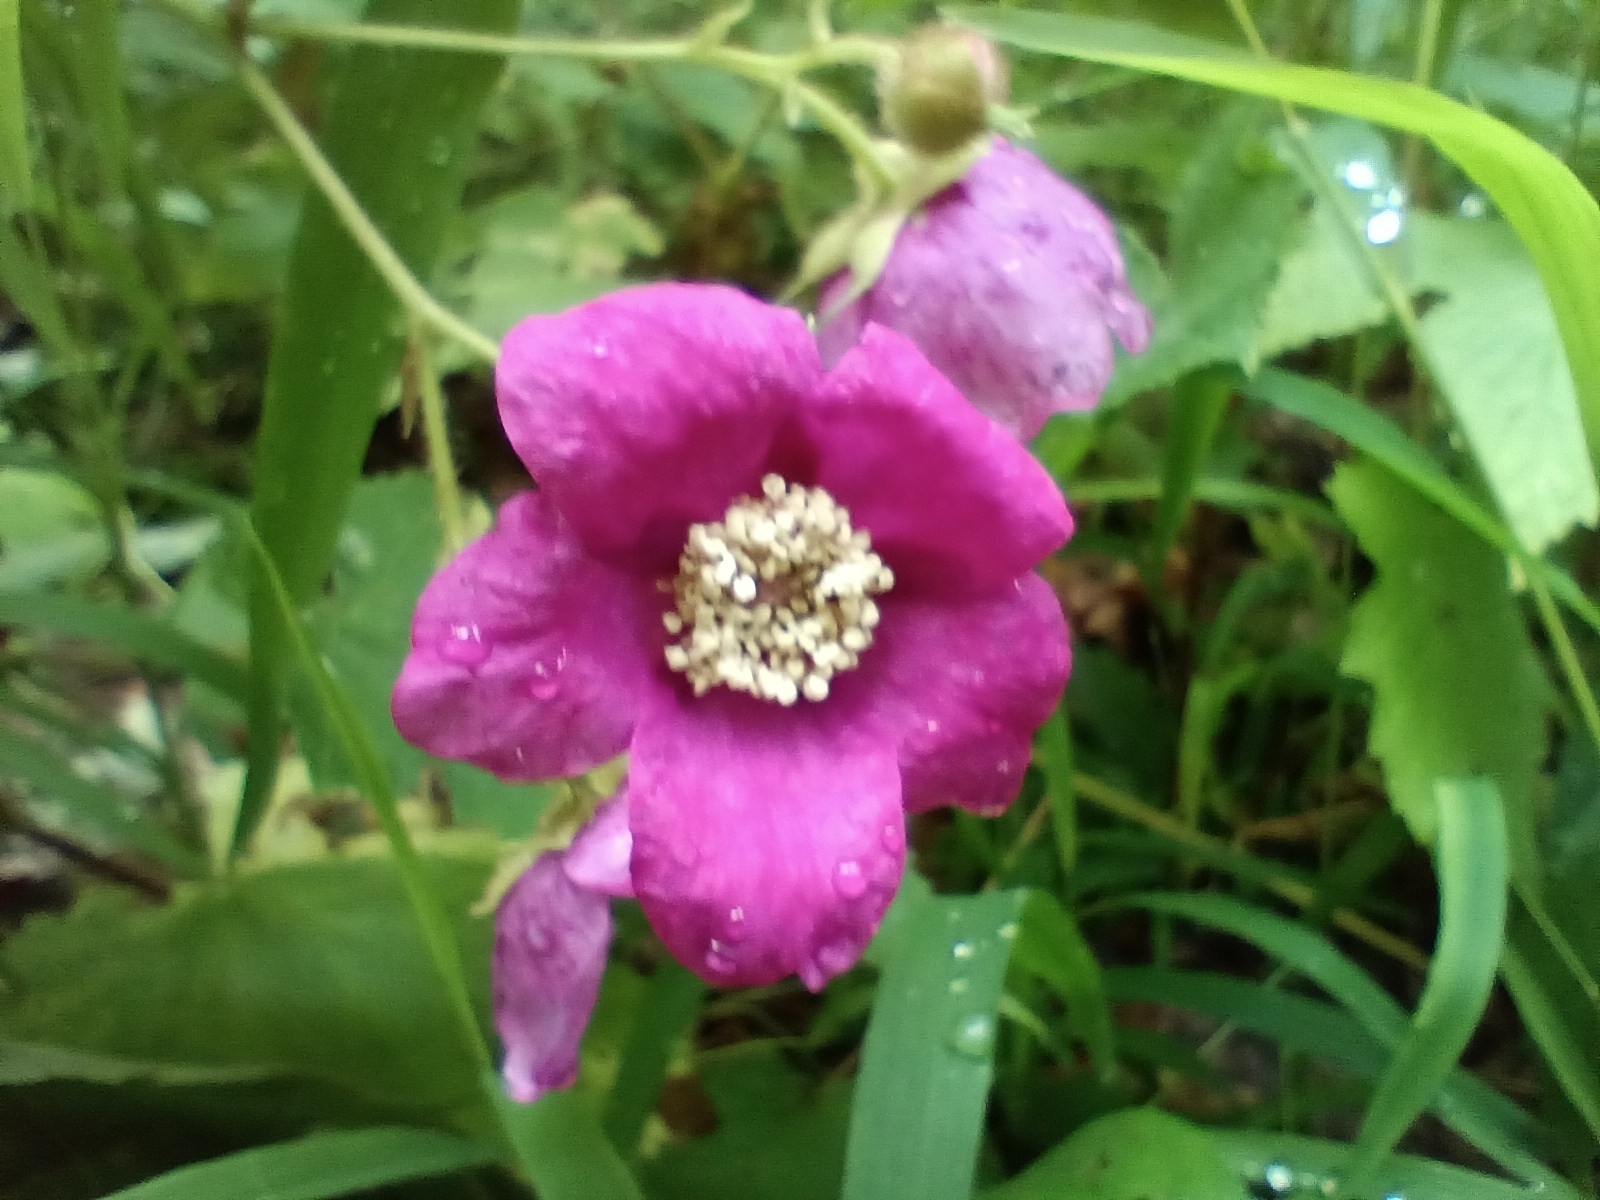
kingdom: Plantae
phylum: Tracheophyta
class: Magnoliopsida
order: Rosales
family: Rosaceae
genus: Rubus
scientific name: Rubus odoratus
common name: Purple-flowered raspberry
